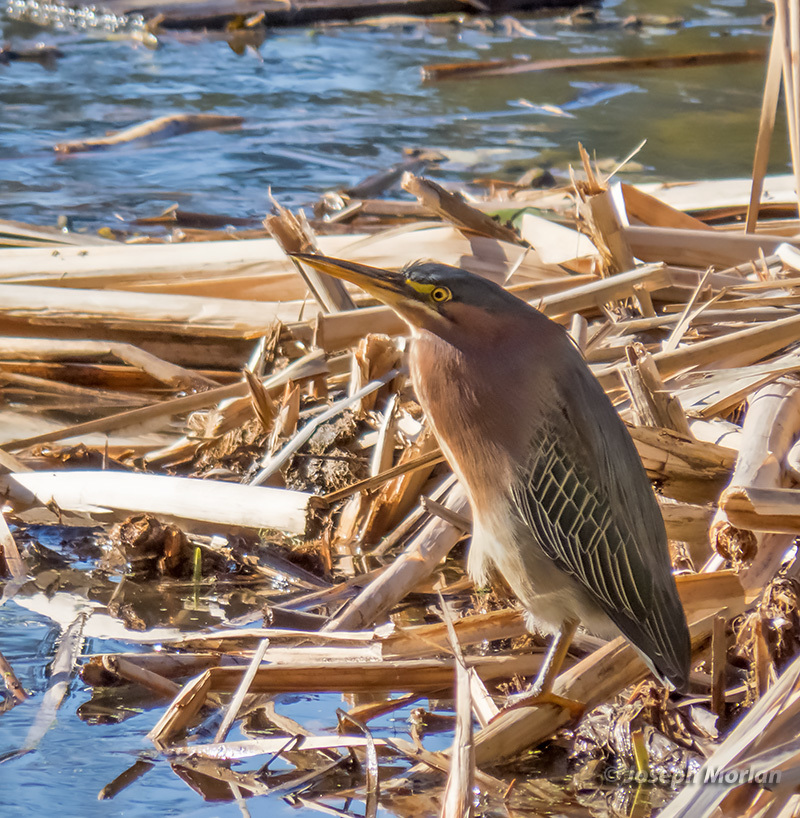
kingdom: Animalia
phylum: Chordata
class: Aves
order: Pelecaniformes
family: Ardeidae
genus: Butorides
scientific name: Butorides virescens
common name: Green heron
